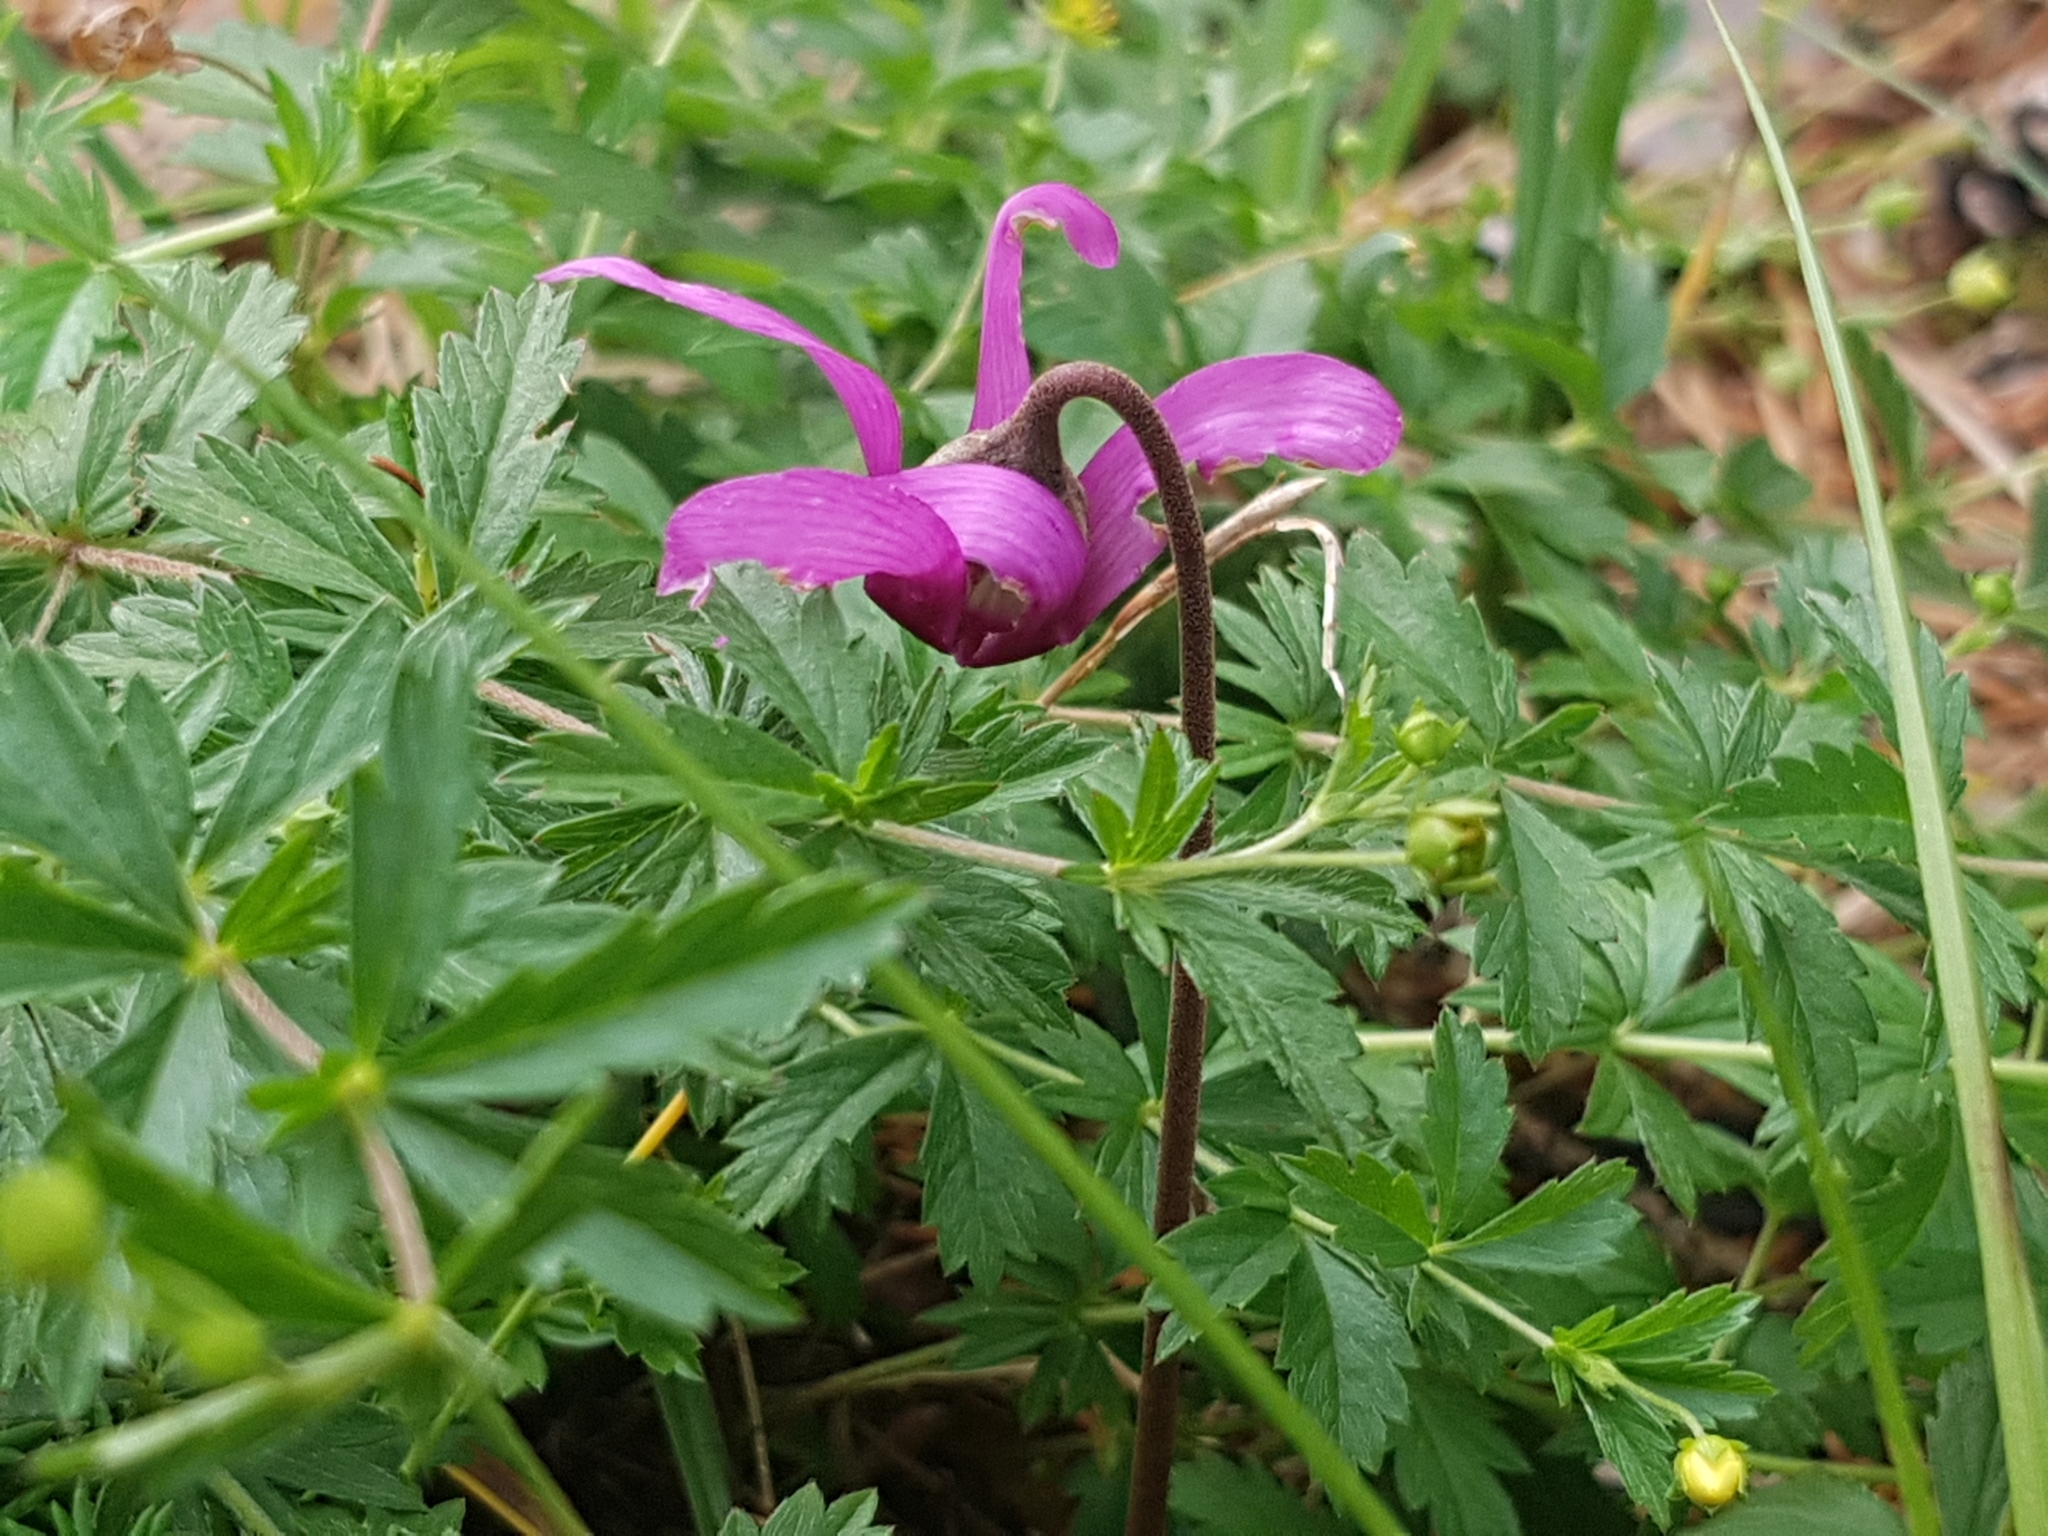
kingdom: Plantae
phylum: Tracheophyta
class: Magnoliopsida
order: Ericales
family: Primulaceae
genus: Cyclamen
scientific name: Cyclamen purpurascens
